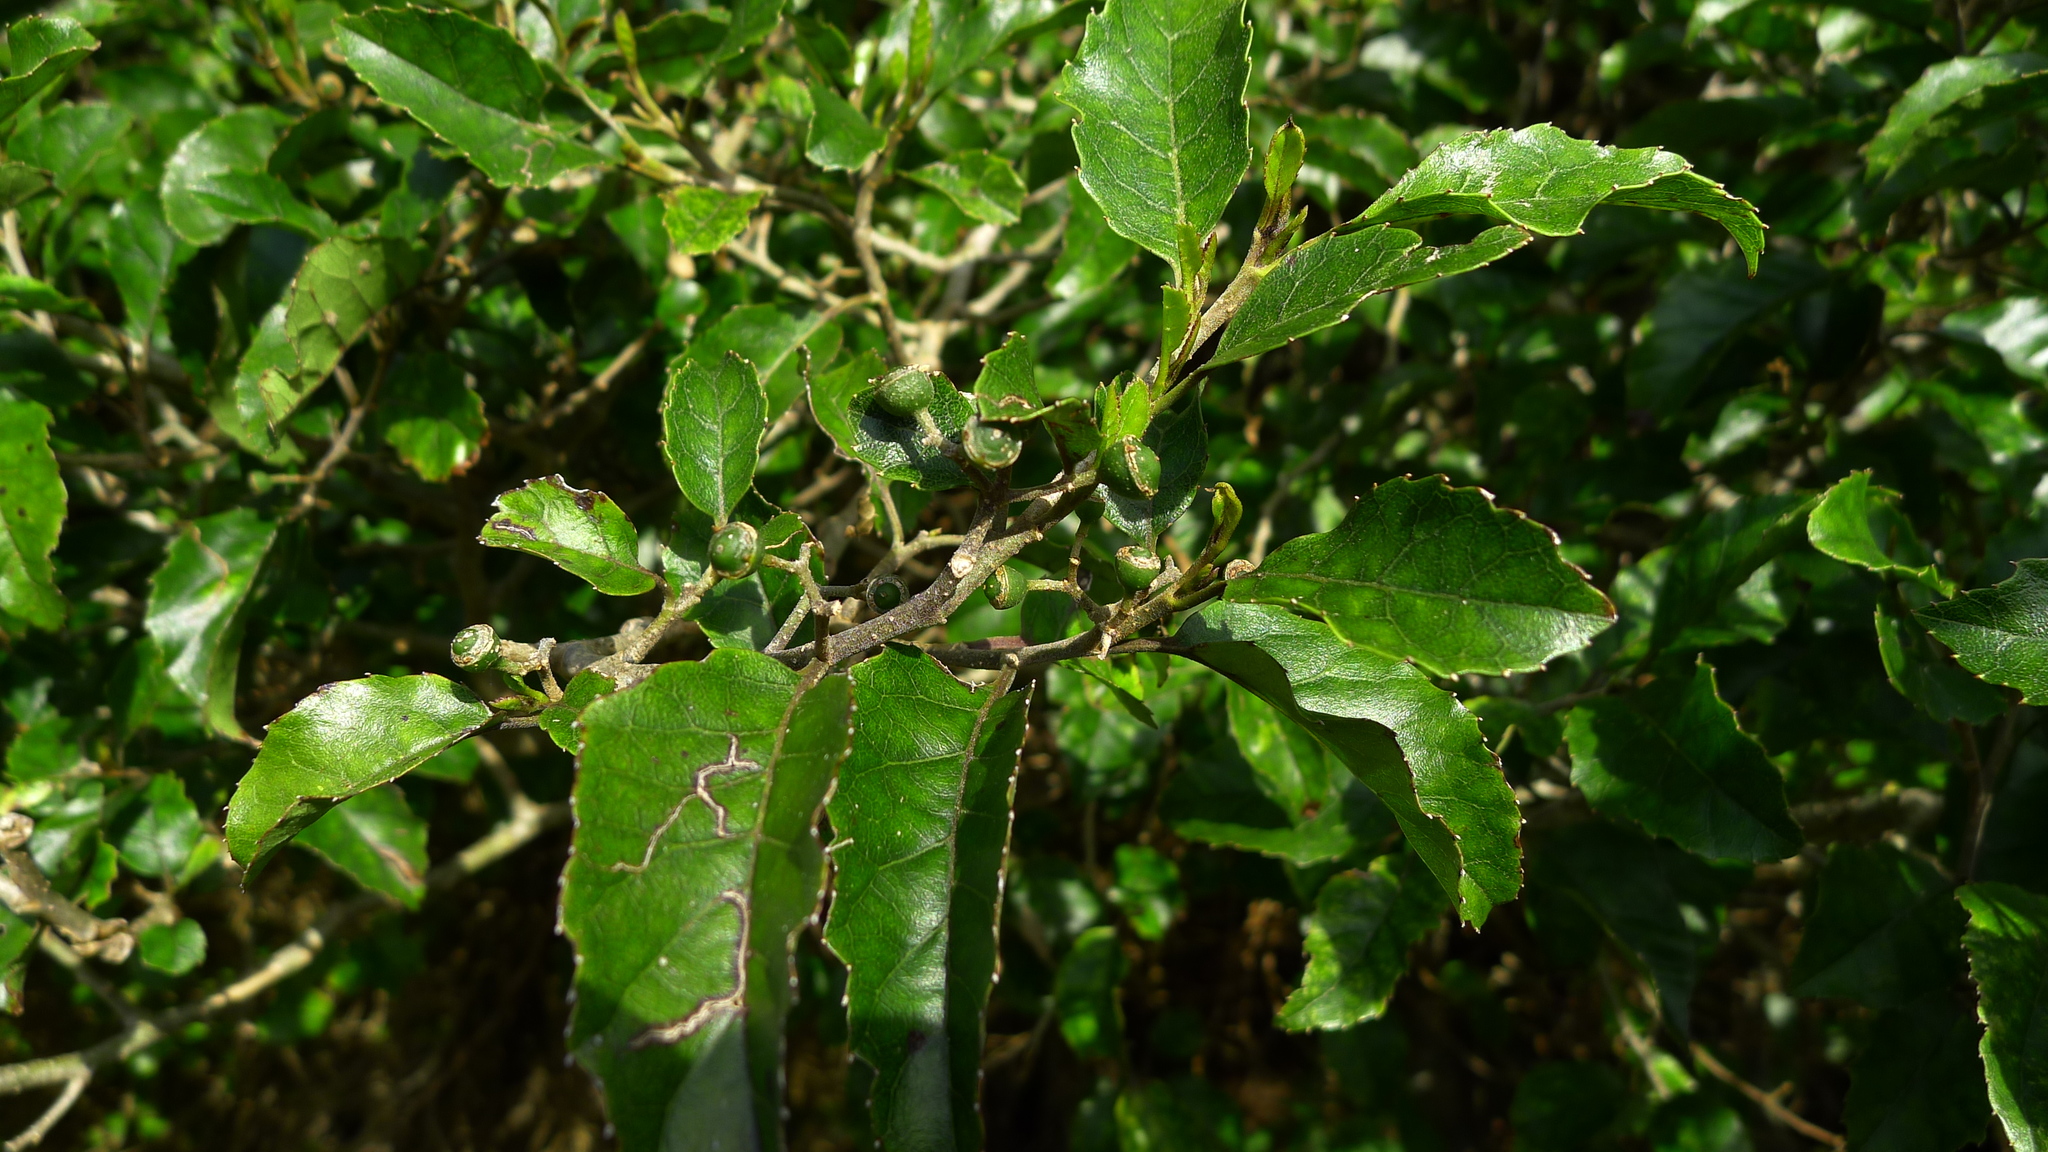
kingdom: Plantae
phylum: Tracheophyta
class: Magnoliopsida
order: Asterales
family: Rousseaceae
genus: Carpodetus
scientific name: Carpodetus serratus
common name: White mapau
